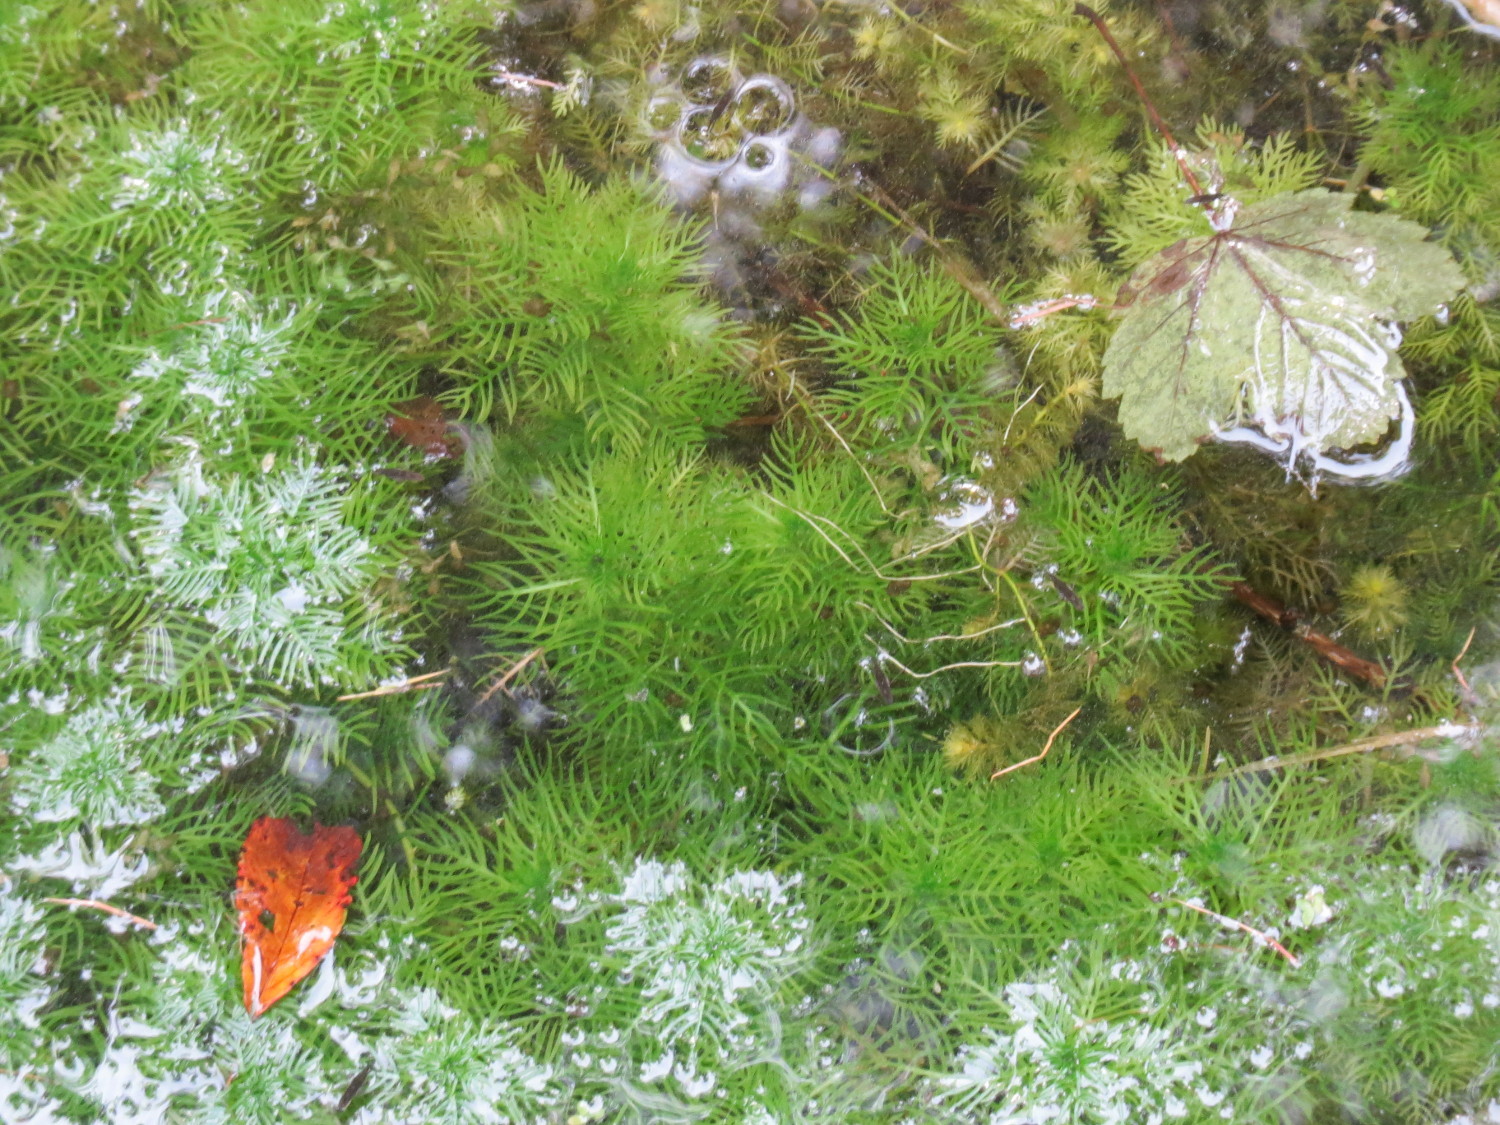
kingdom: Plantae
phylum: Tracheophyta
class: Magnoliopsida
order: Ericales
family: Primulaceae
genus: Hottonia
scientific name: Hottonia palustris
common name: Water-violet
